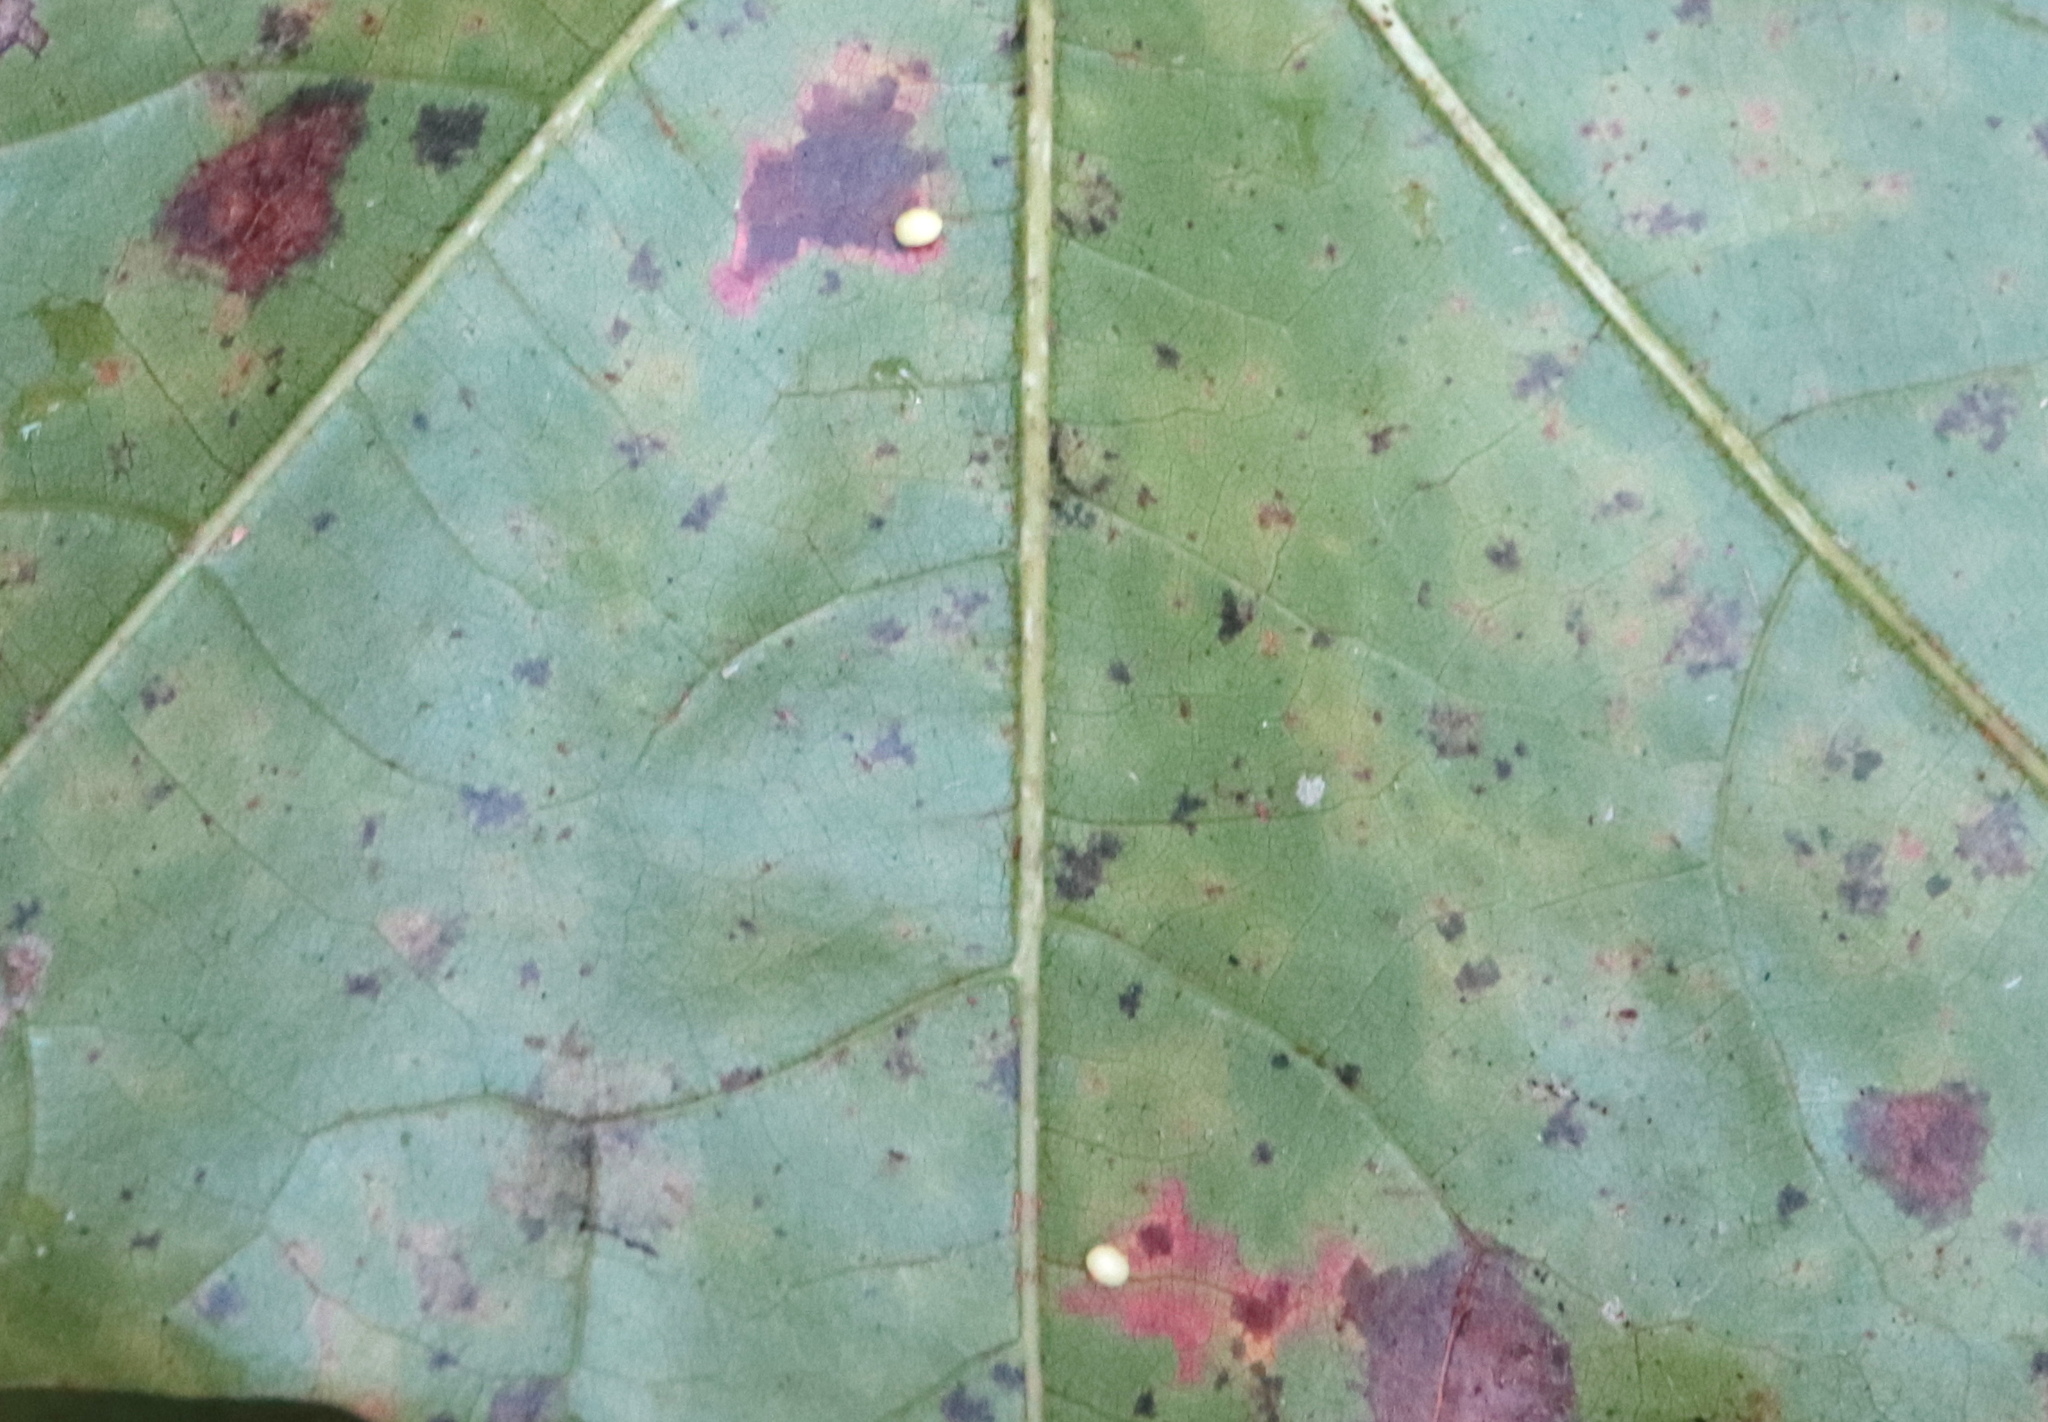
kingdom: Animalia
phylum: Arthropoda
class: Insecta
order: Hymenoptera
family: Cynipidae
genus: Zopheroteras
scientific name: Zopheroteras
